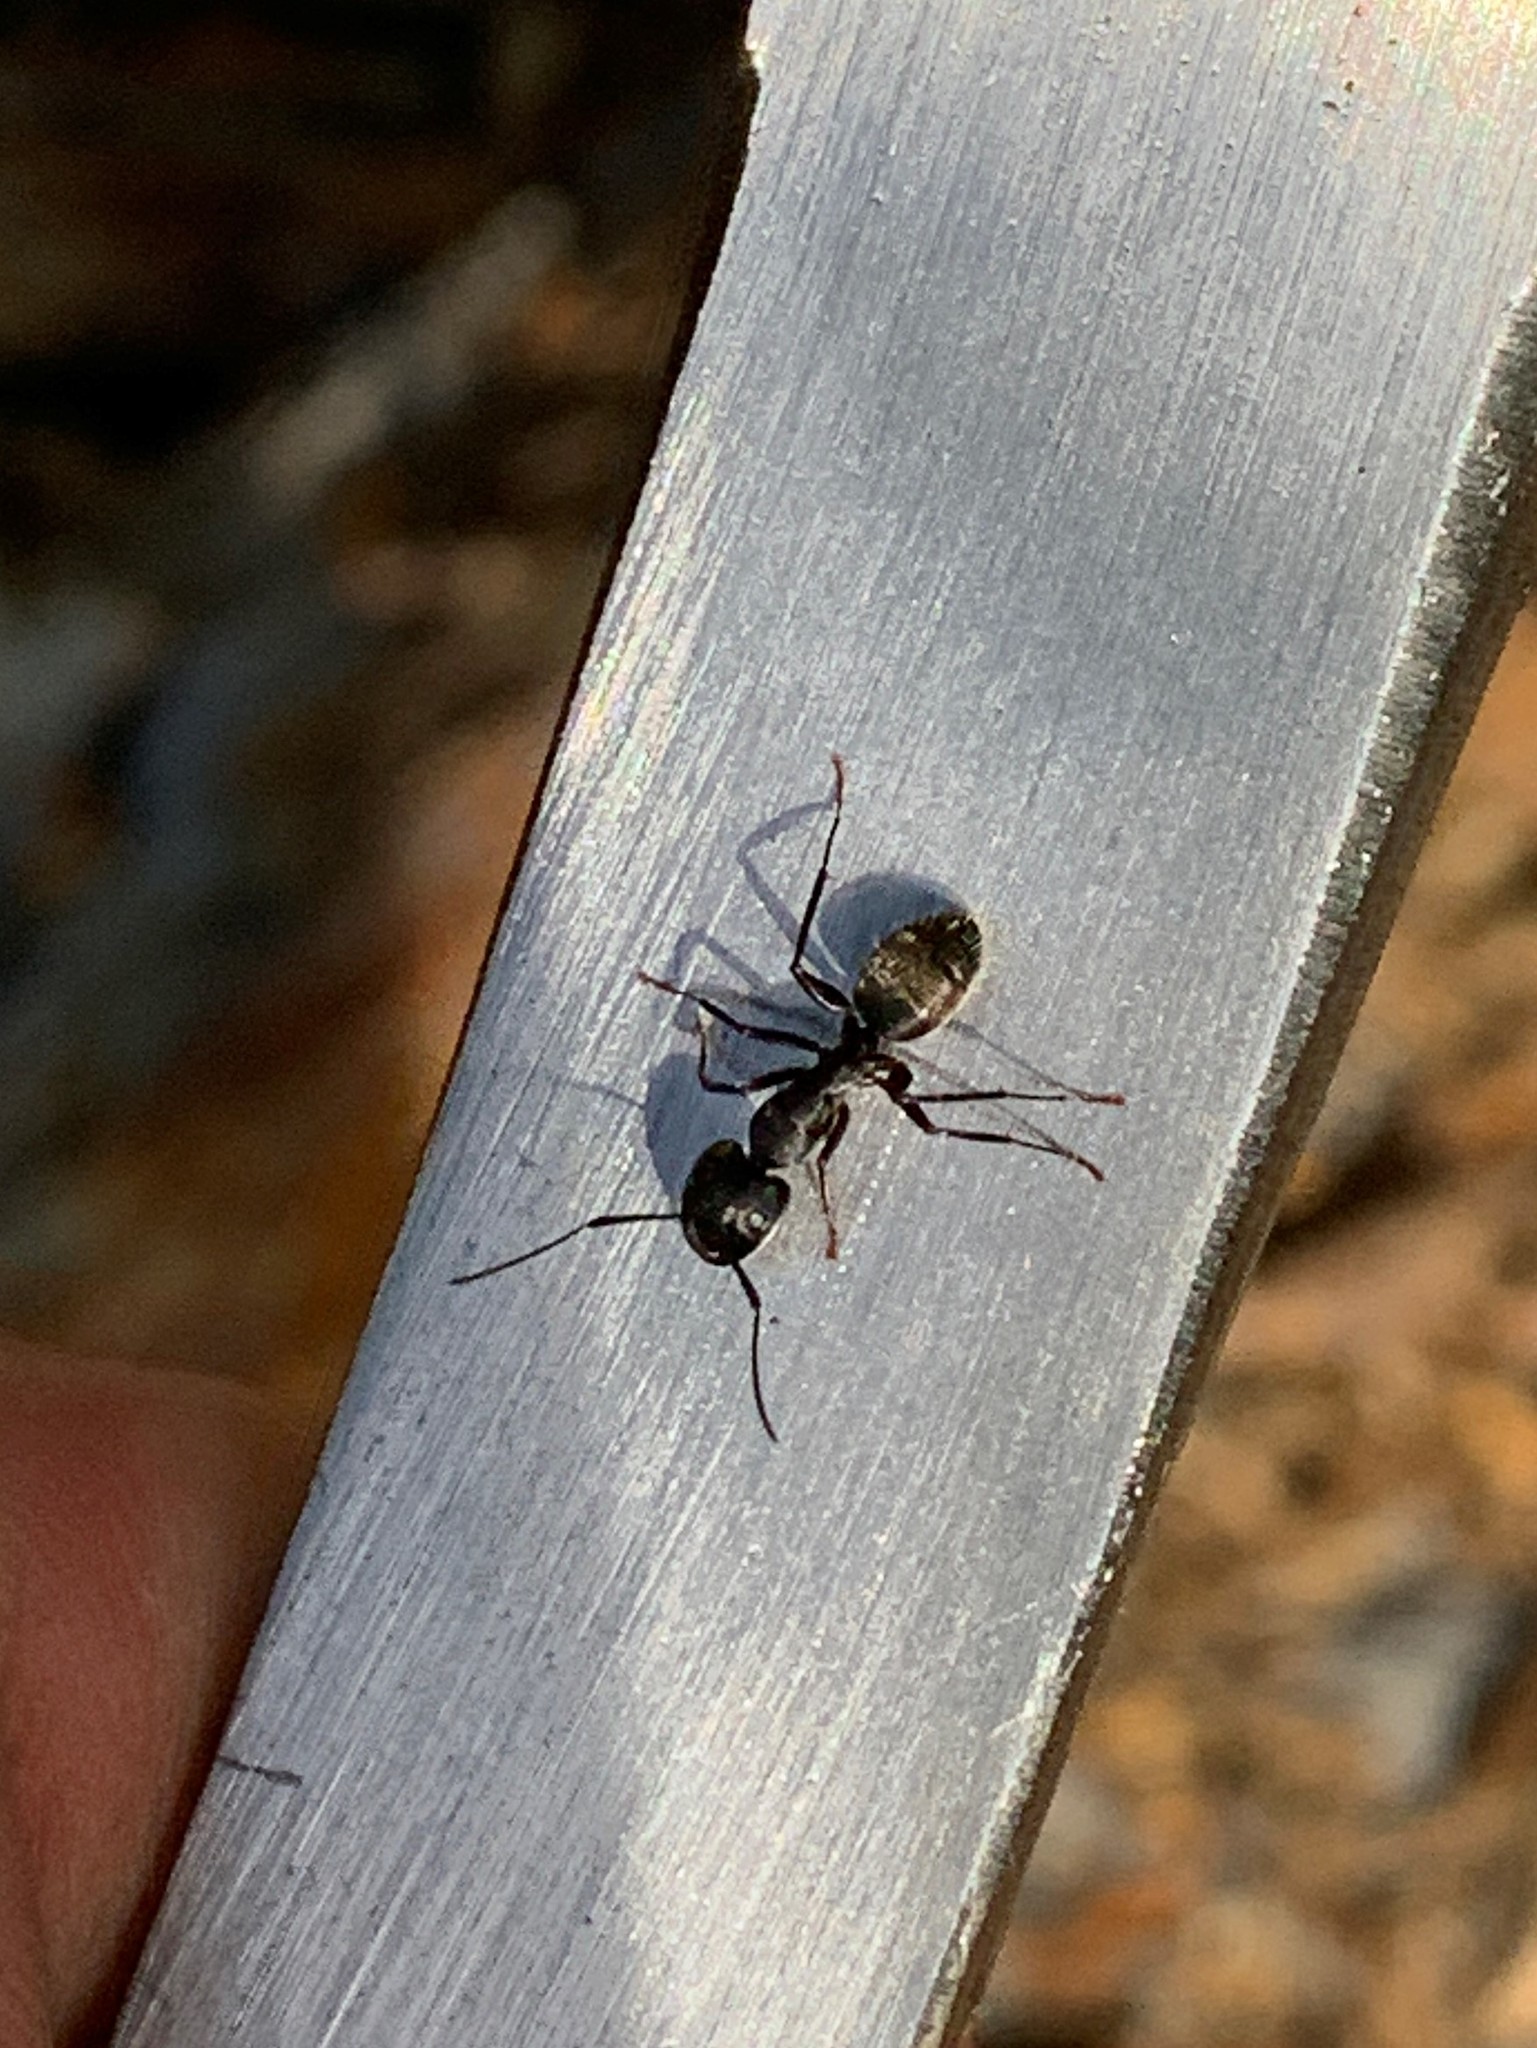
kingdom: Animalia
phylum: Arthropoda
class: Insecta
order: Hymenoptera
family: Formicidae
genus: Camponotus
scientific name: Camponotus pennsylvanicus
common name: Black carpenter ant
